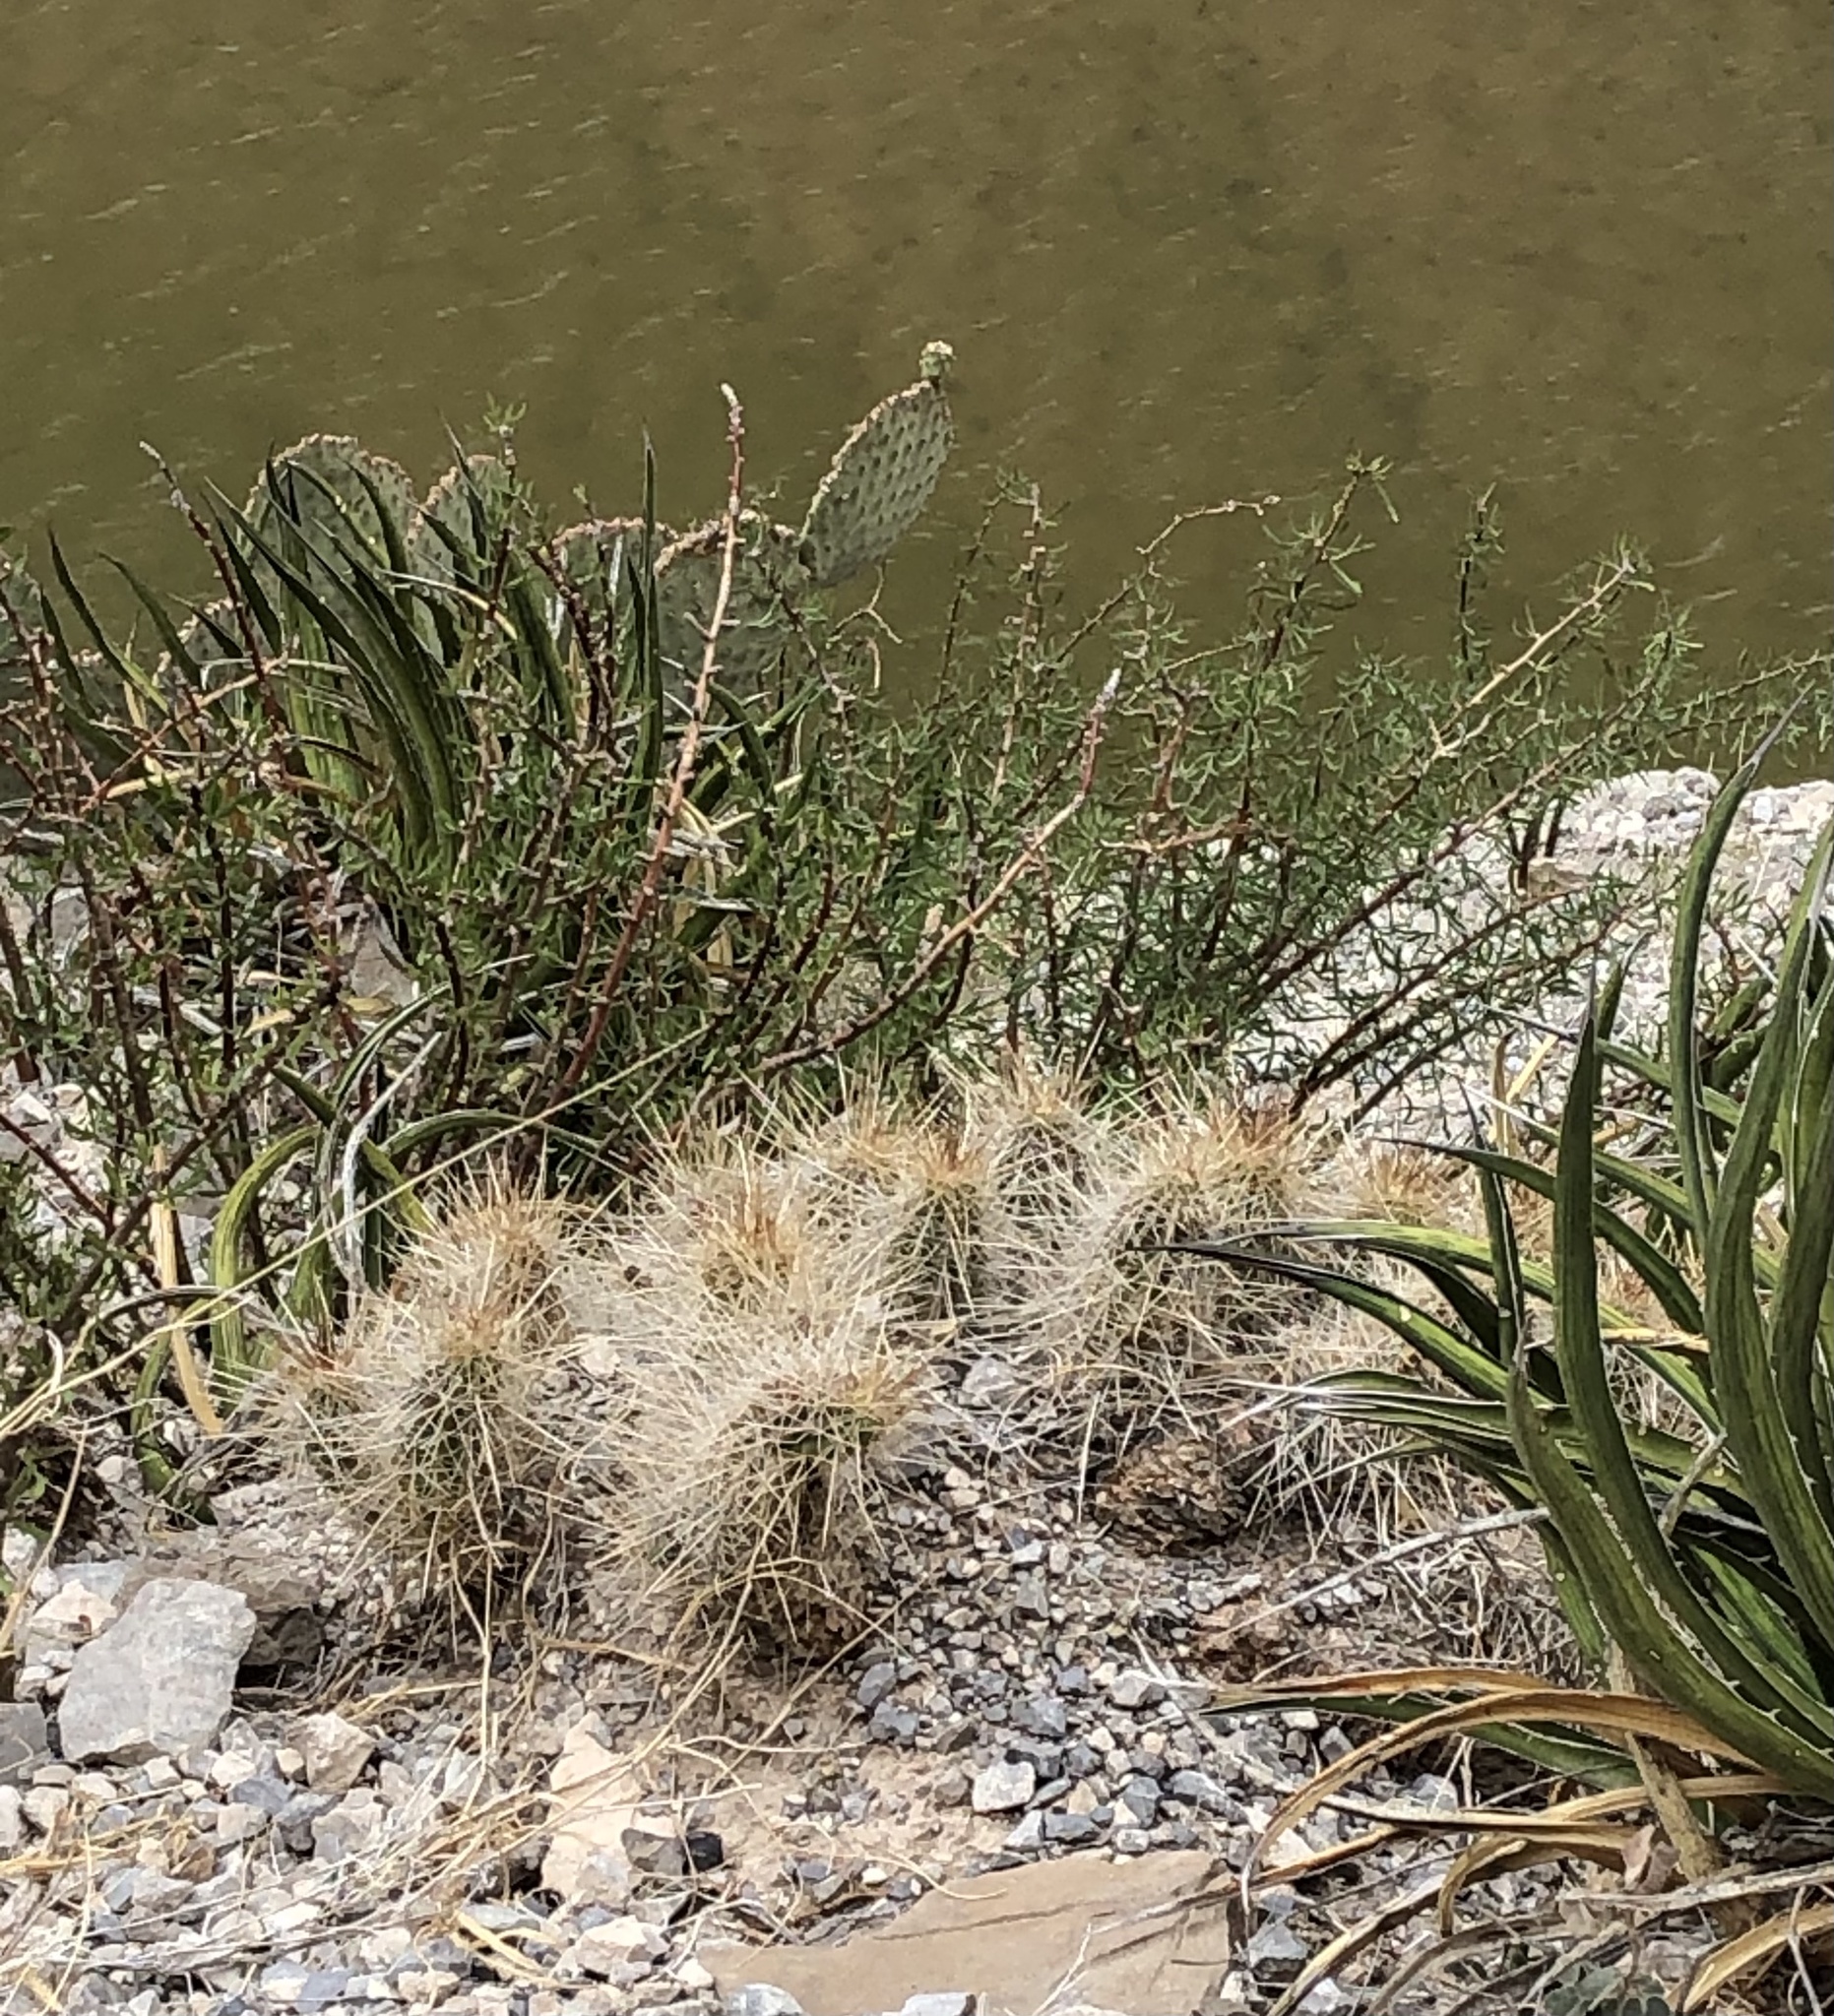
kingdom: Plantae
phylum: Tracheophyta
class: Magnoliopsida
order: Caryophyllales
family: Cactaceae
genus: Echinocereus
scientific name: Echinocereus stramineus
